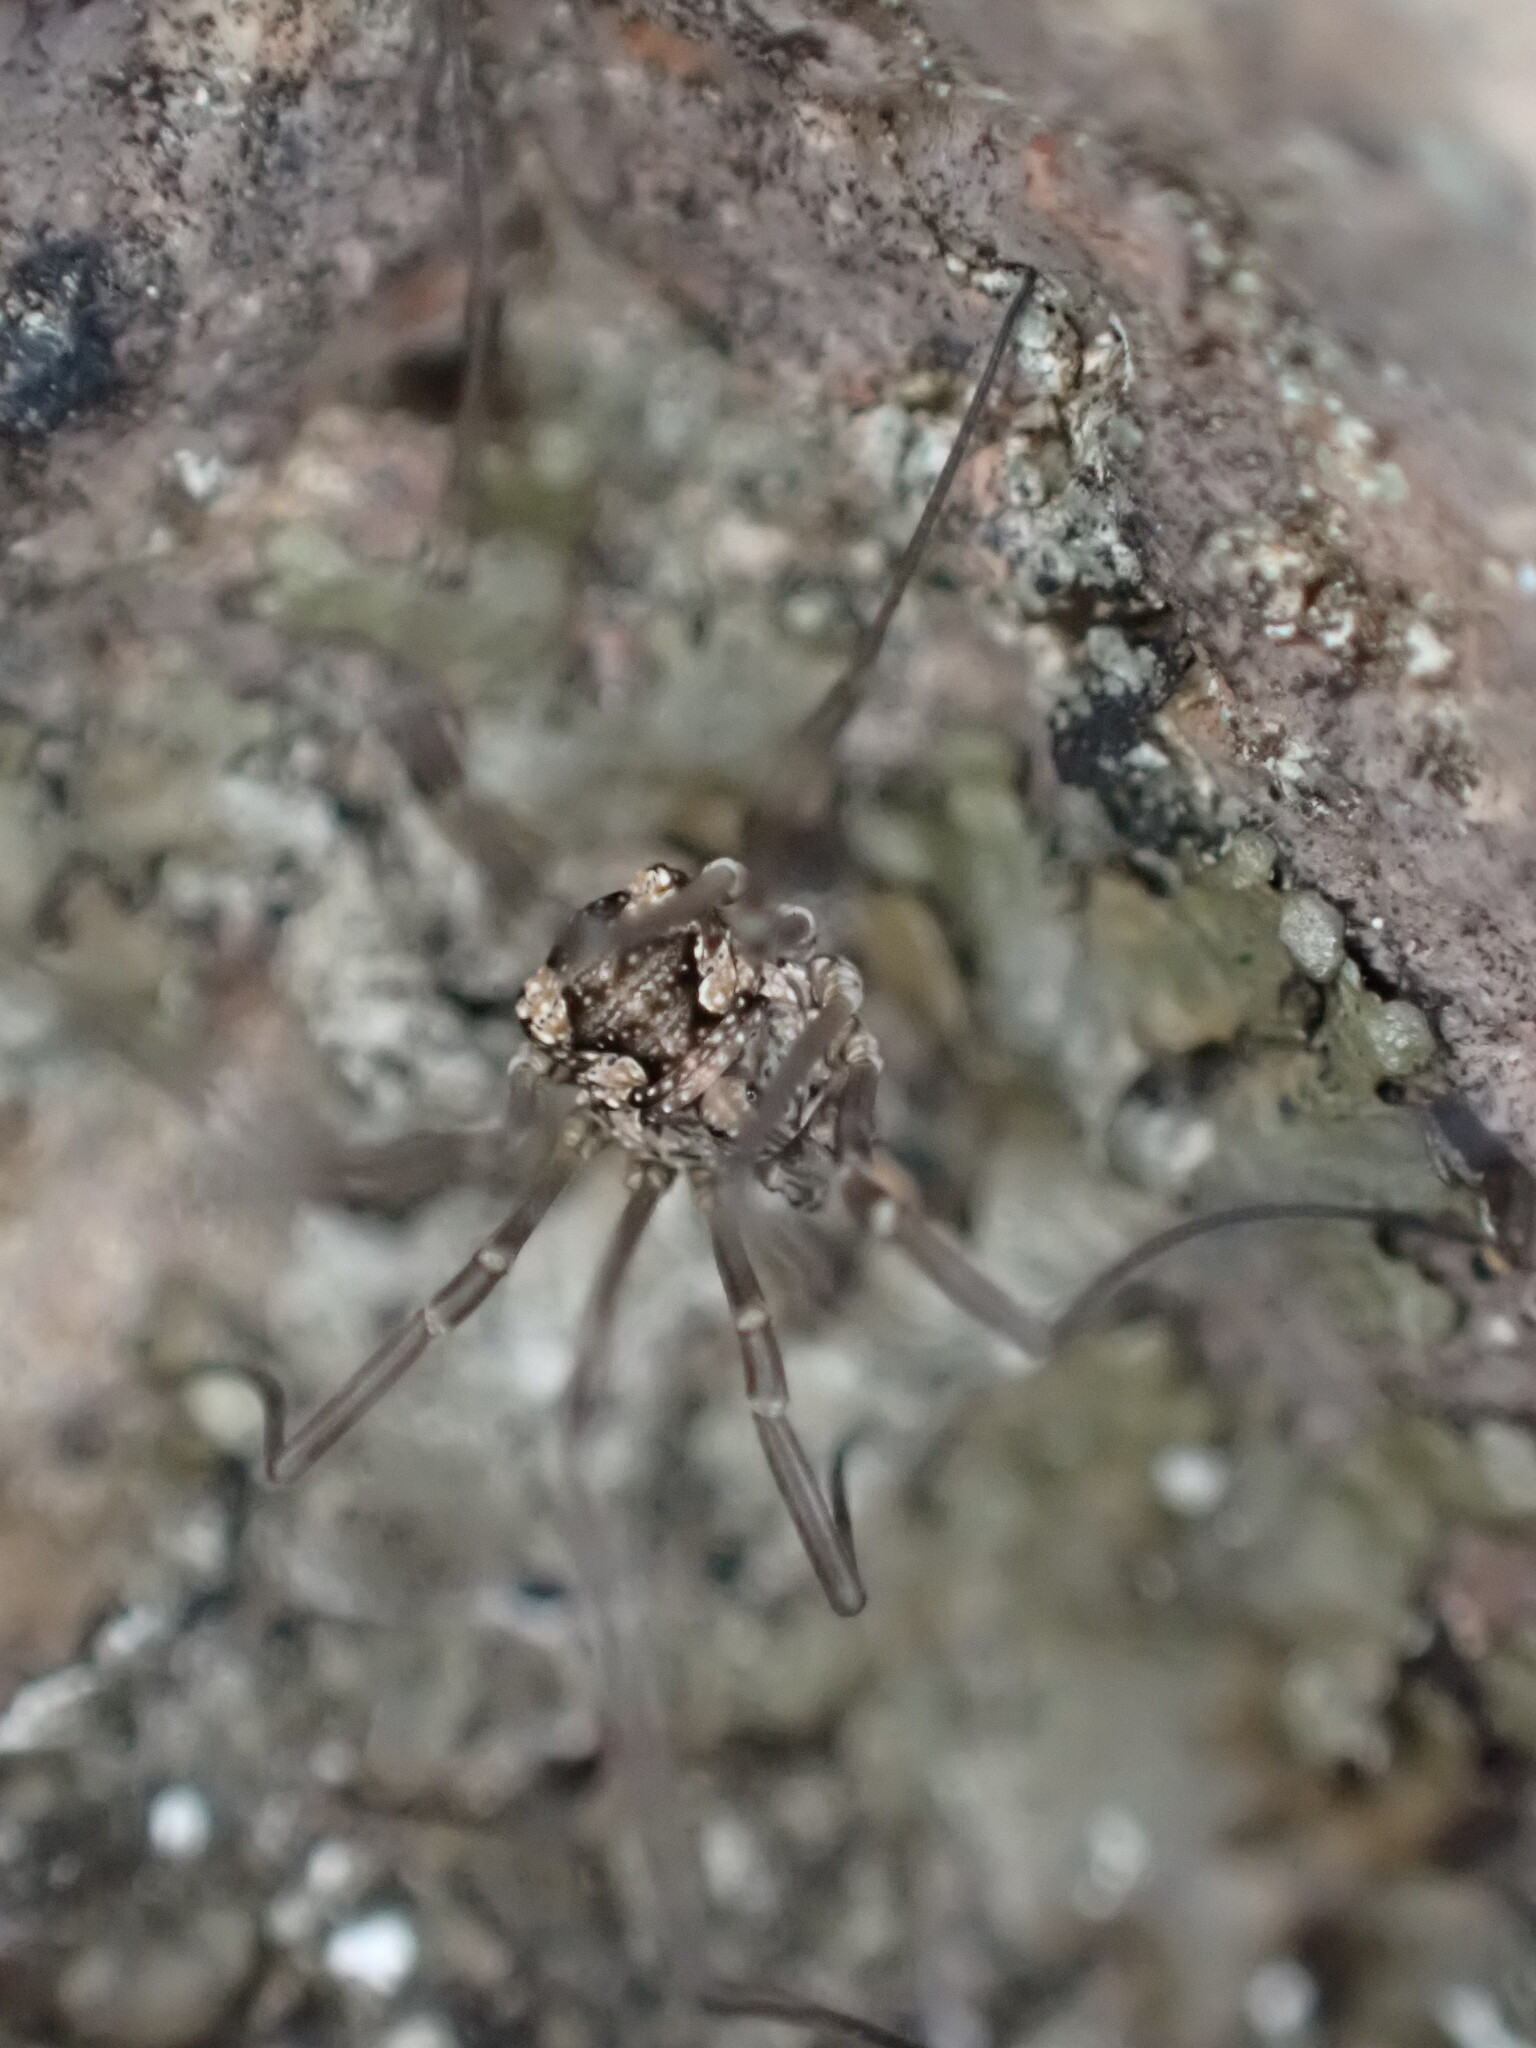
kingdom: Animalia
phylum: Arthropoda
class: Arachnida
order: Opiliones
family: Phalangiidae
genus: Phalangium
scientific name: Phalangium opilio
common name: Daddy longleg
